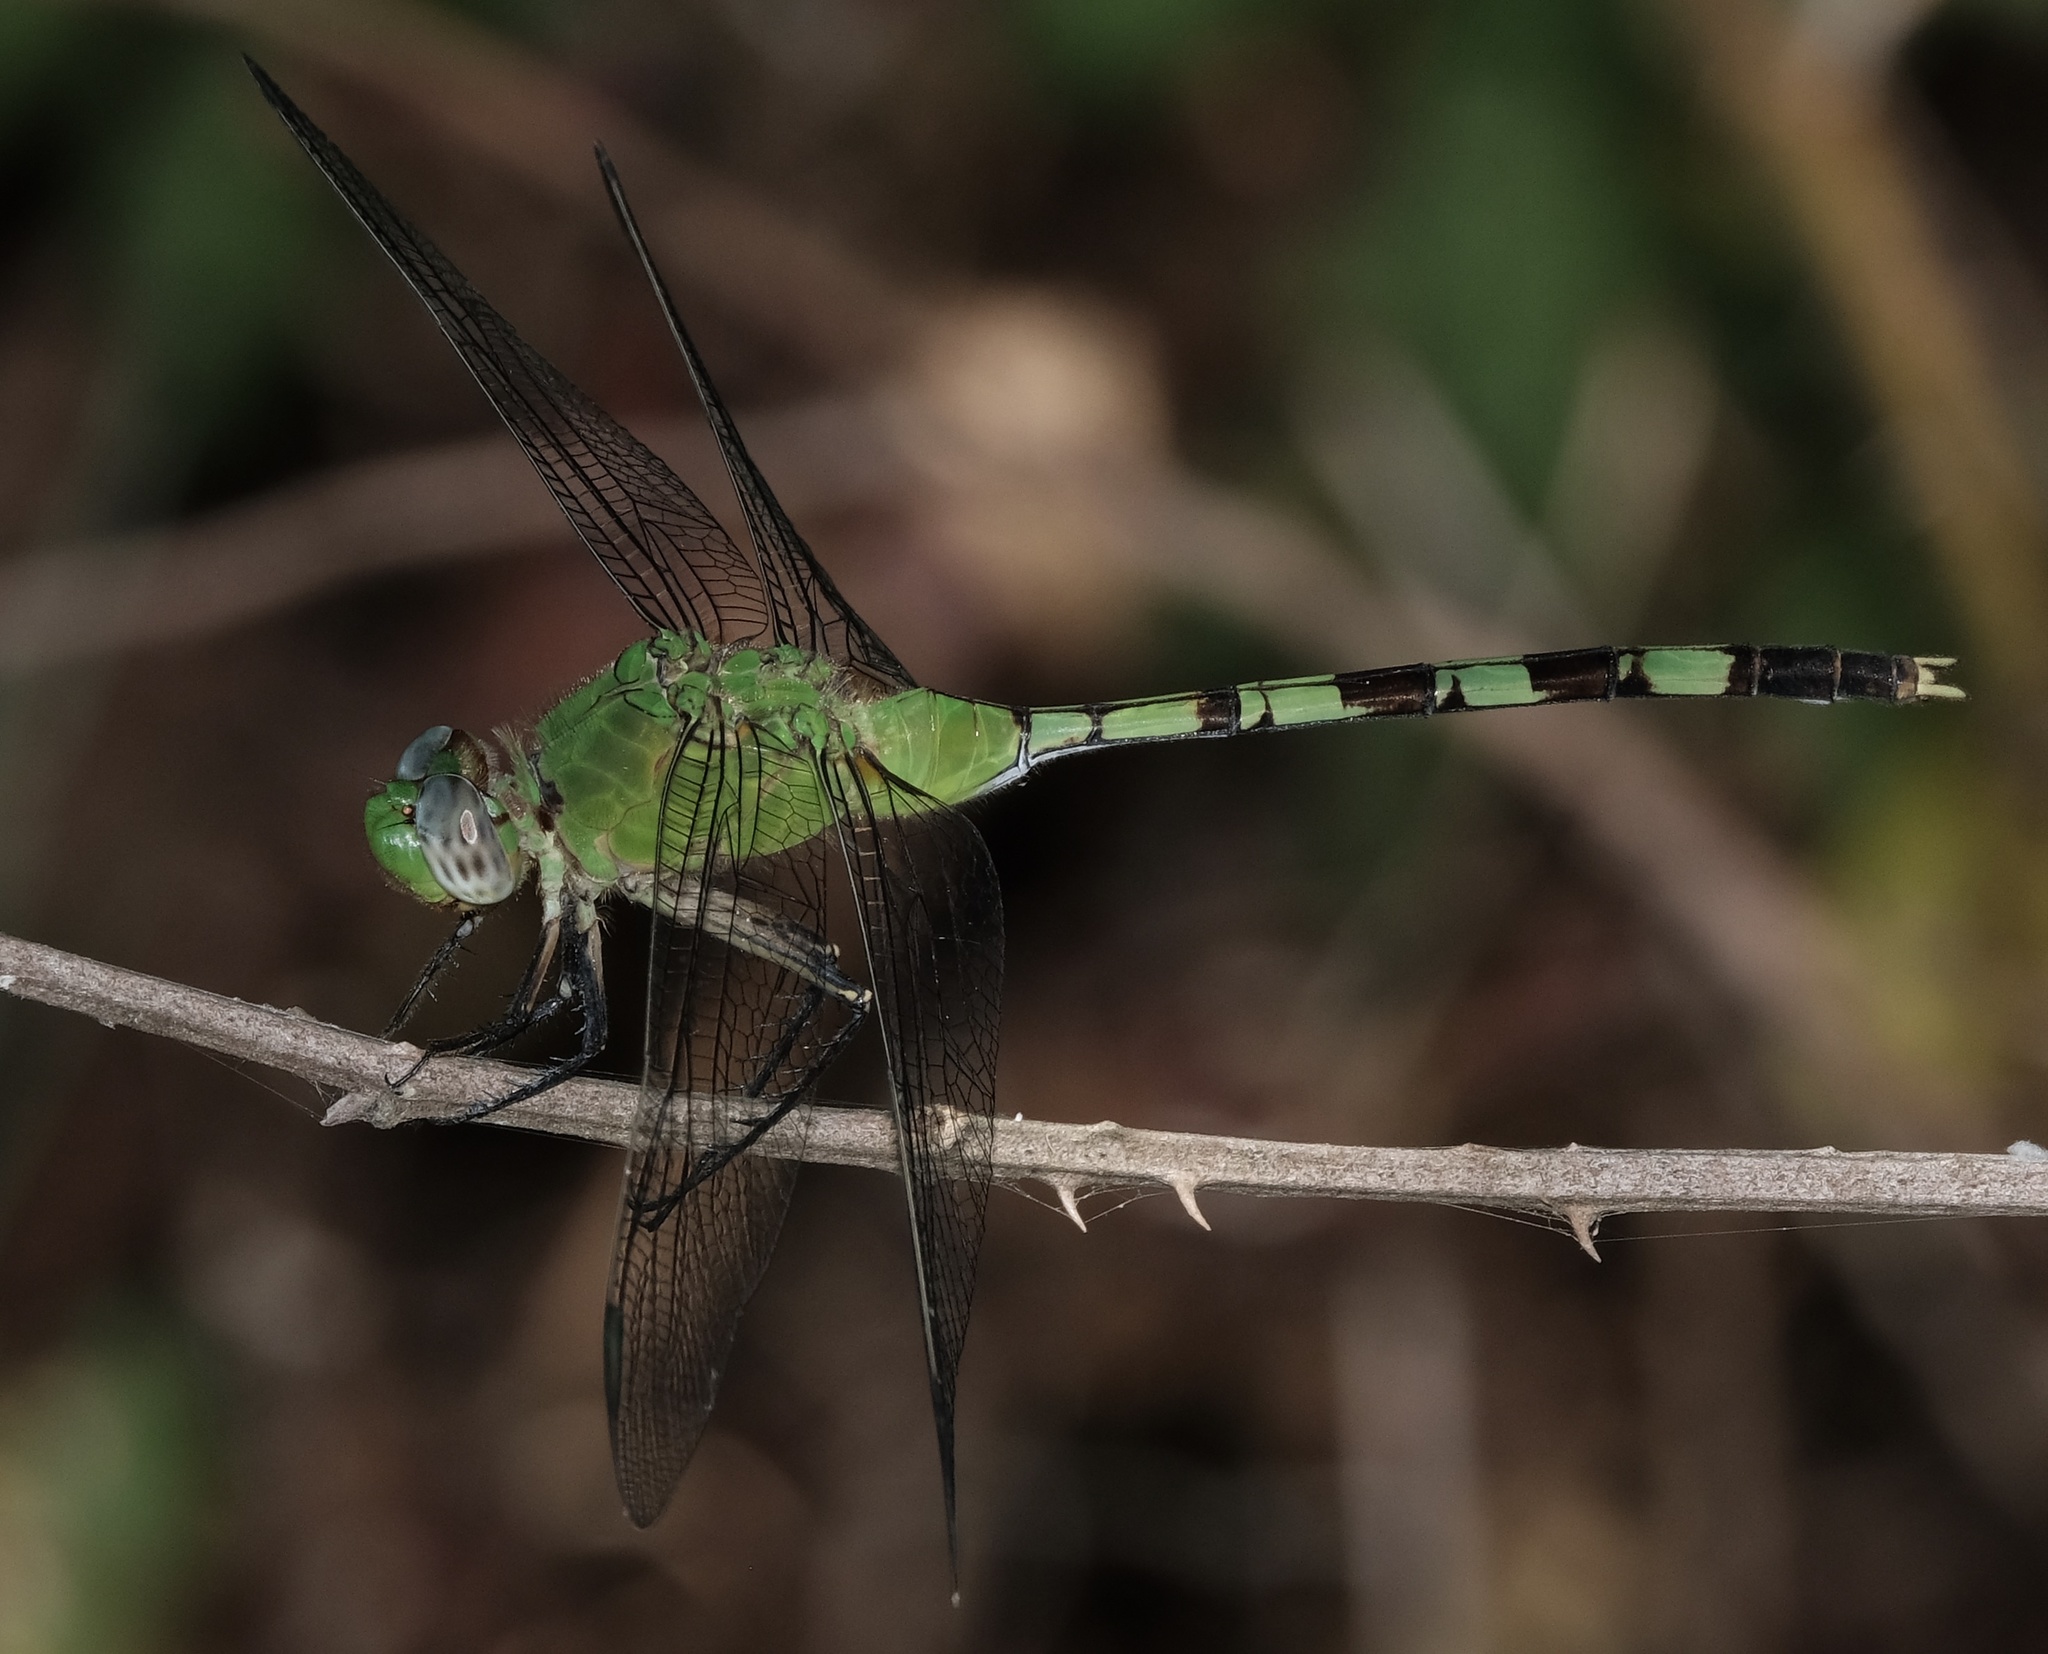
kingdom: Animalia
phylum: Arthropoda
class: Insecta
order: Odonata
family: Libellulidae
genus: Erythemis
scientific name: Erythemis vesiculosa
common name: Great pondhawk
